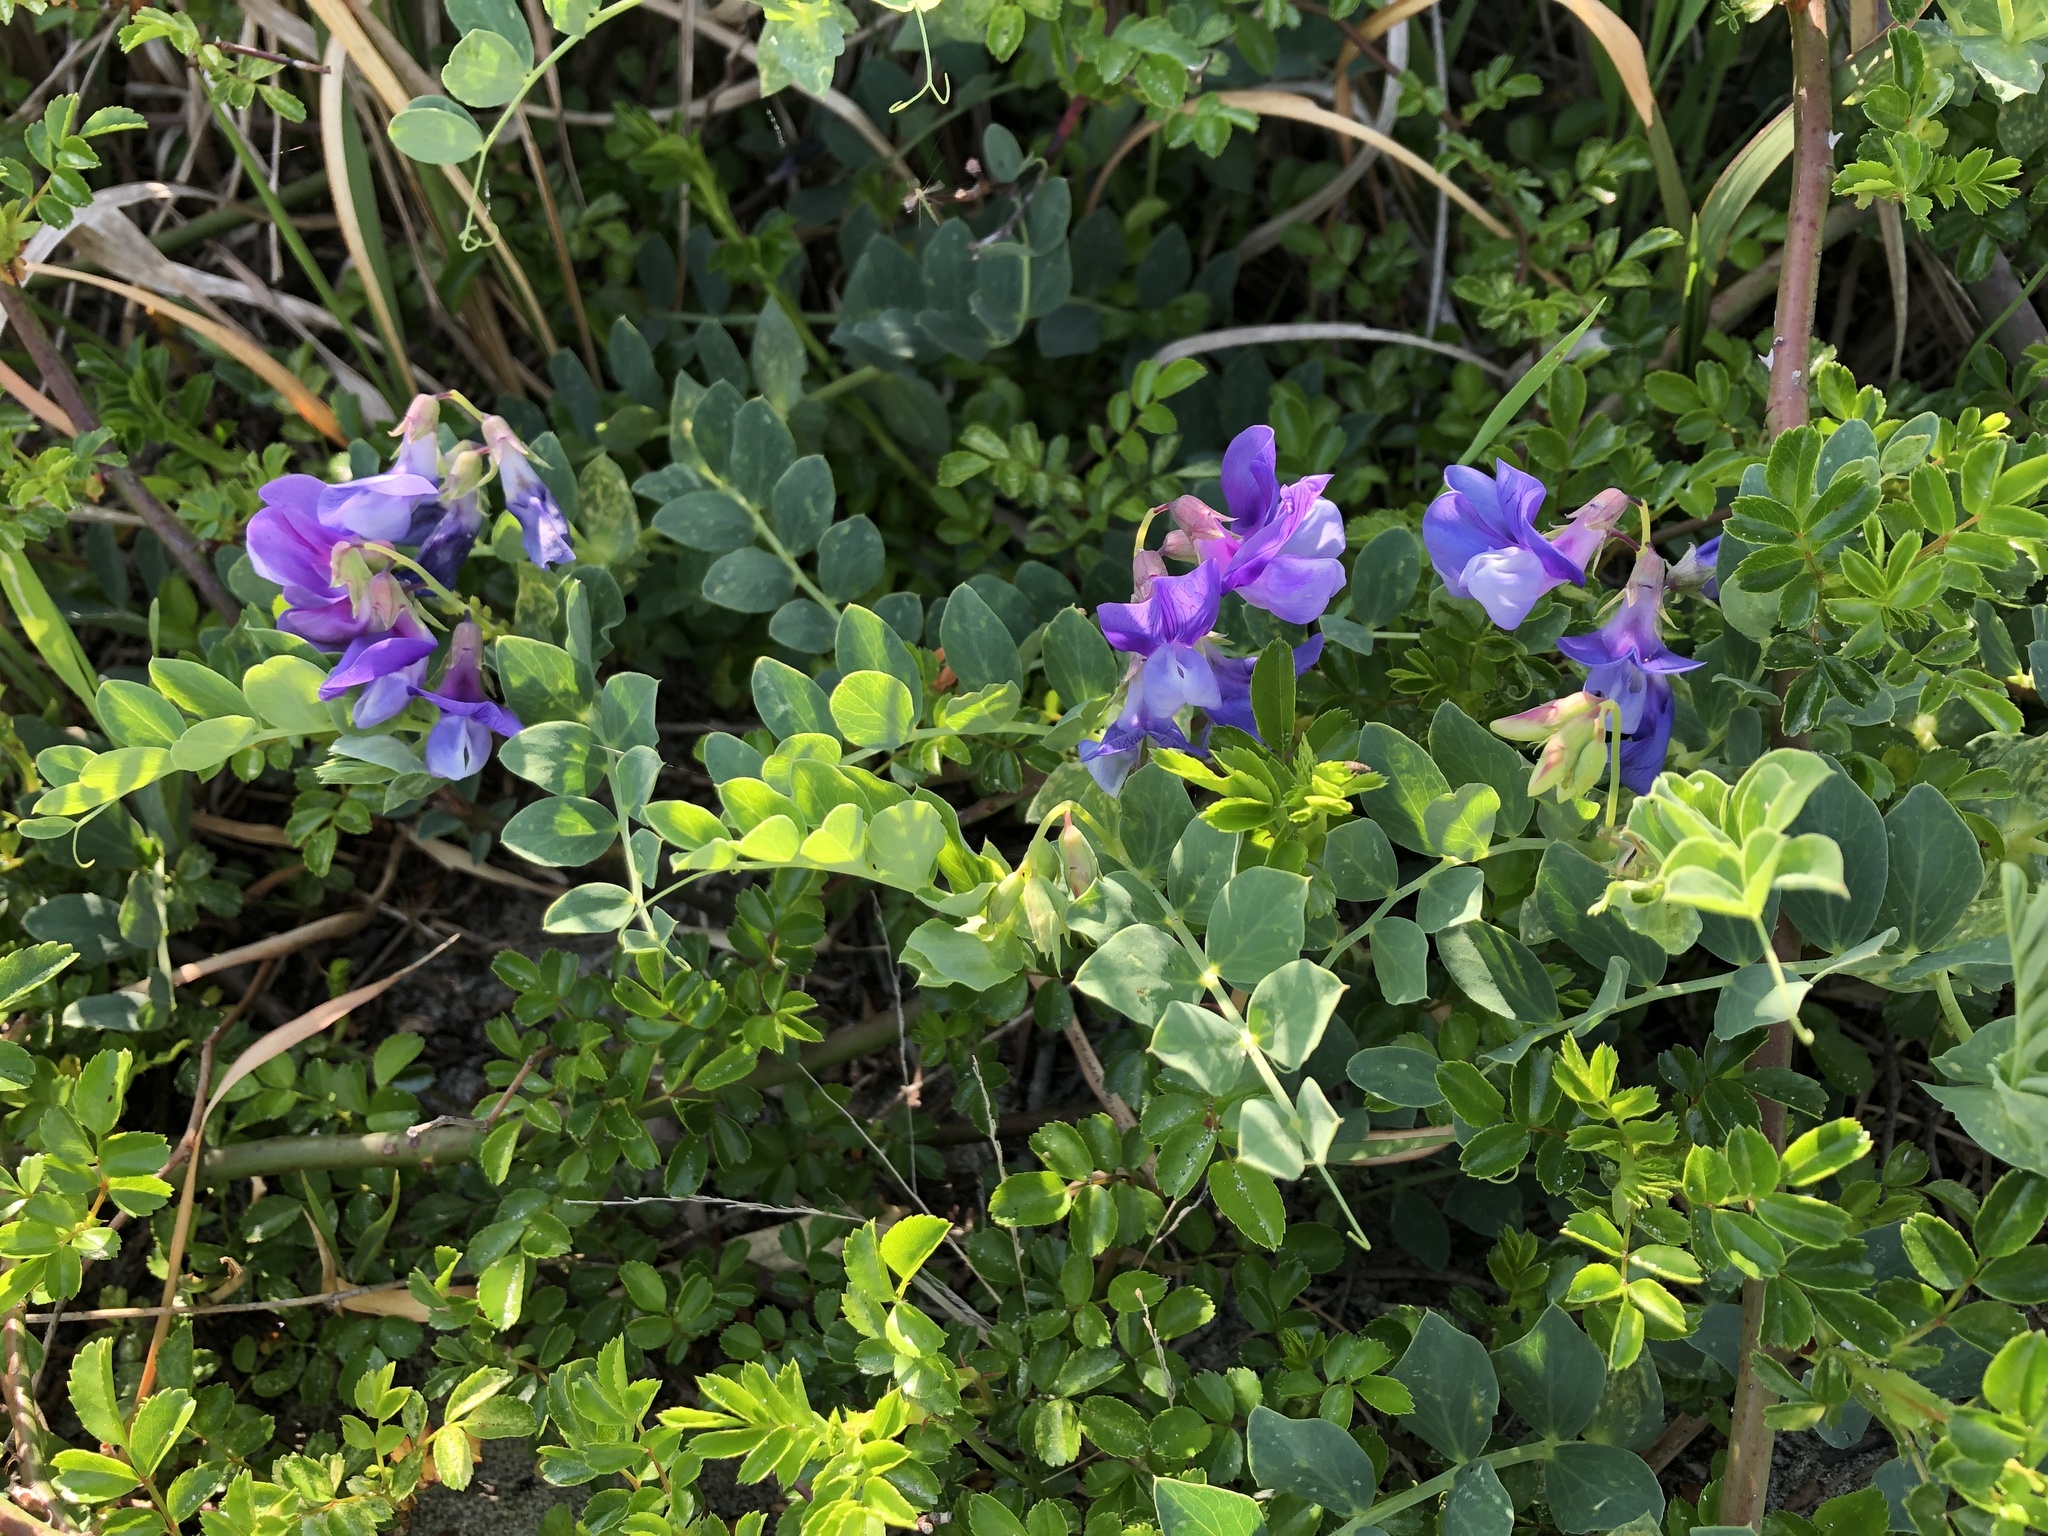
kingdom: Plantae
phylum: Tracheophyta
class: Magnoliopsida
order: Fabales
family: Fabaceae
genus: Lathyrus
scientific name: Lathyrus japonicus
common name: Sea pea
